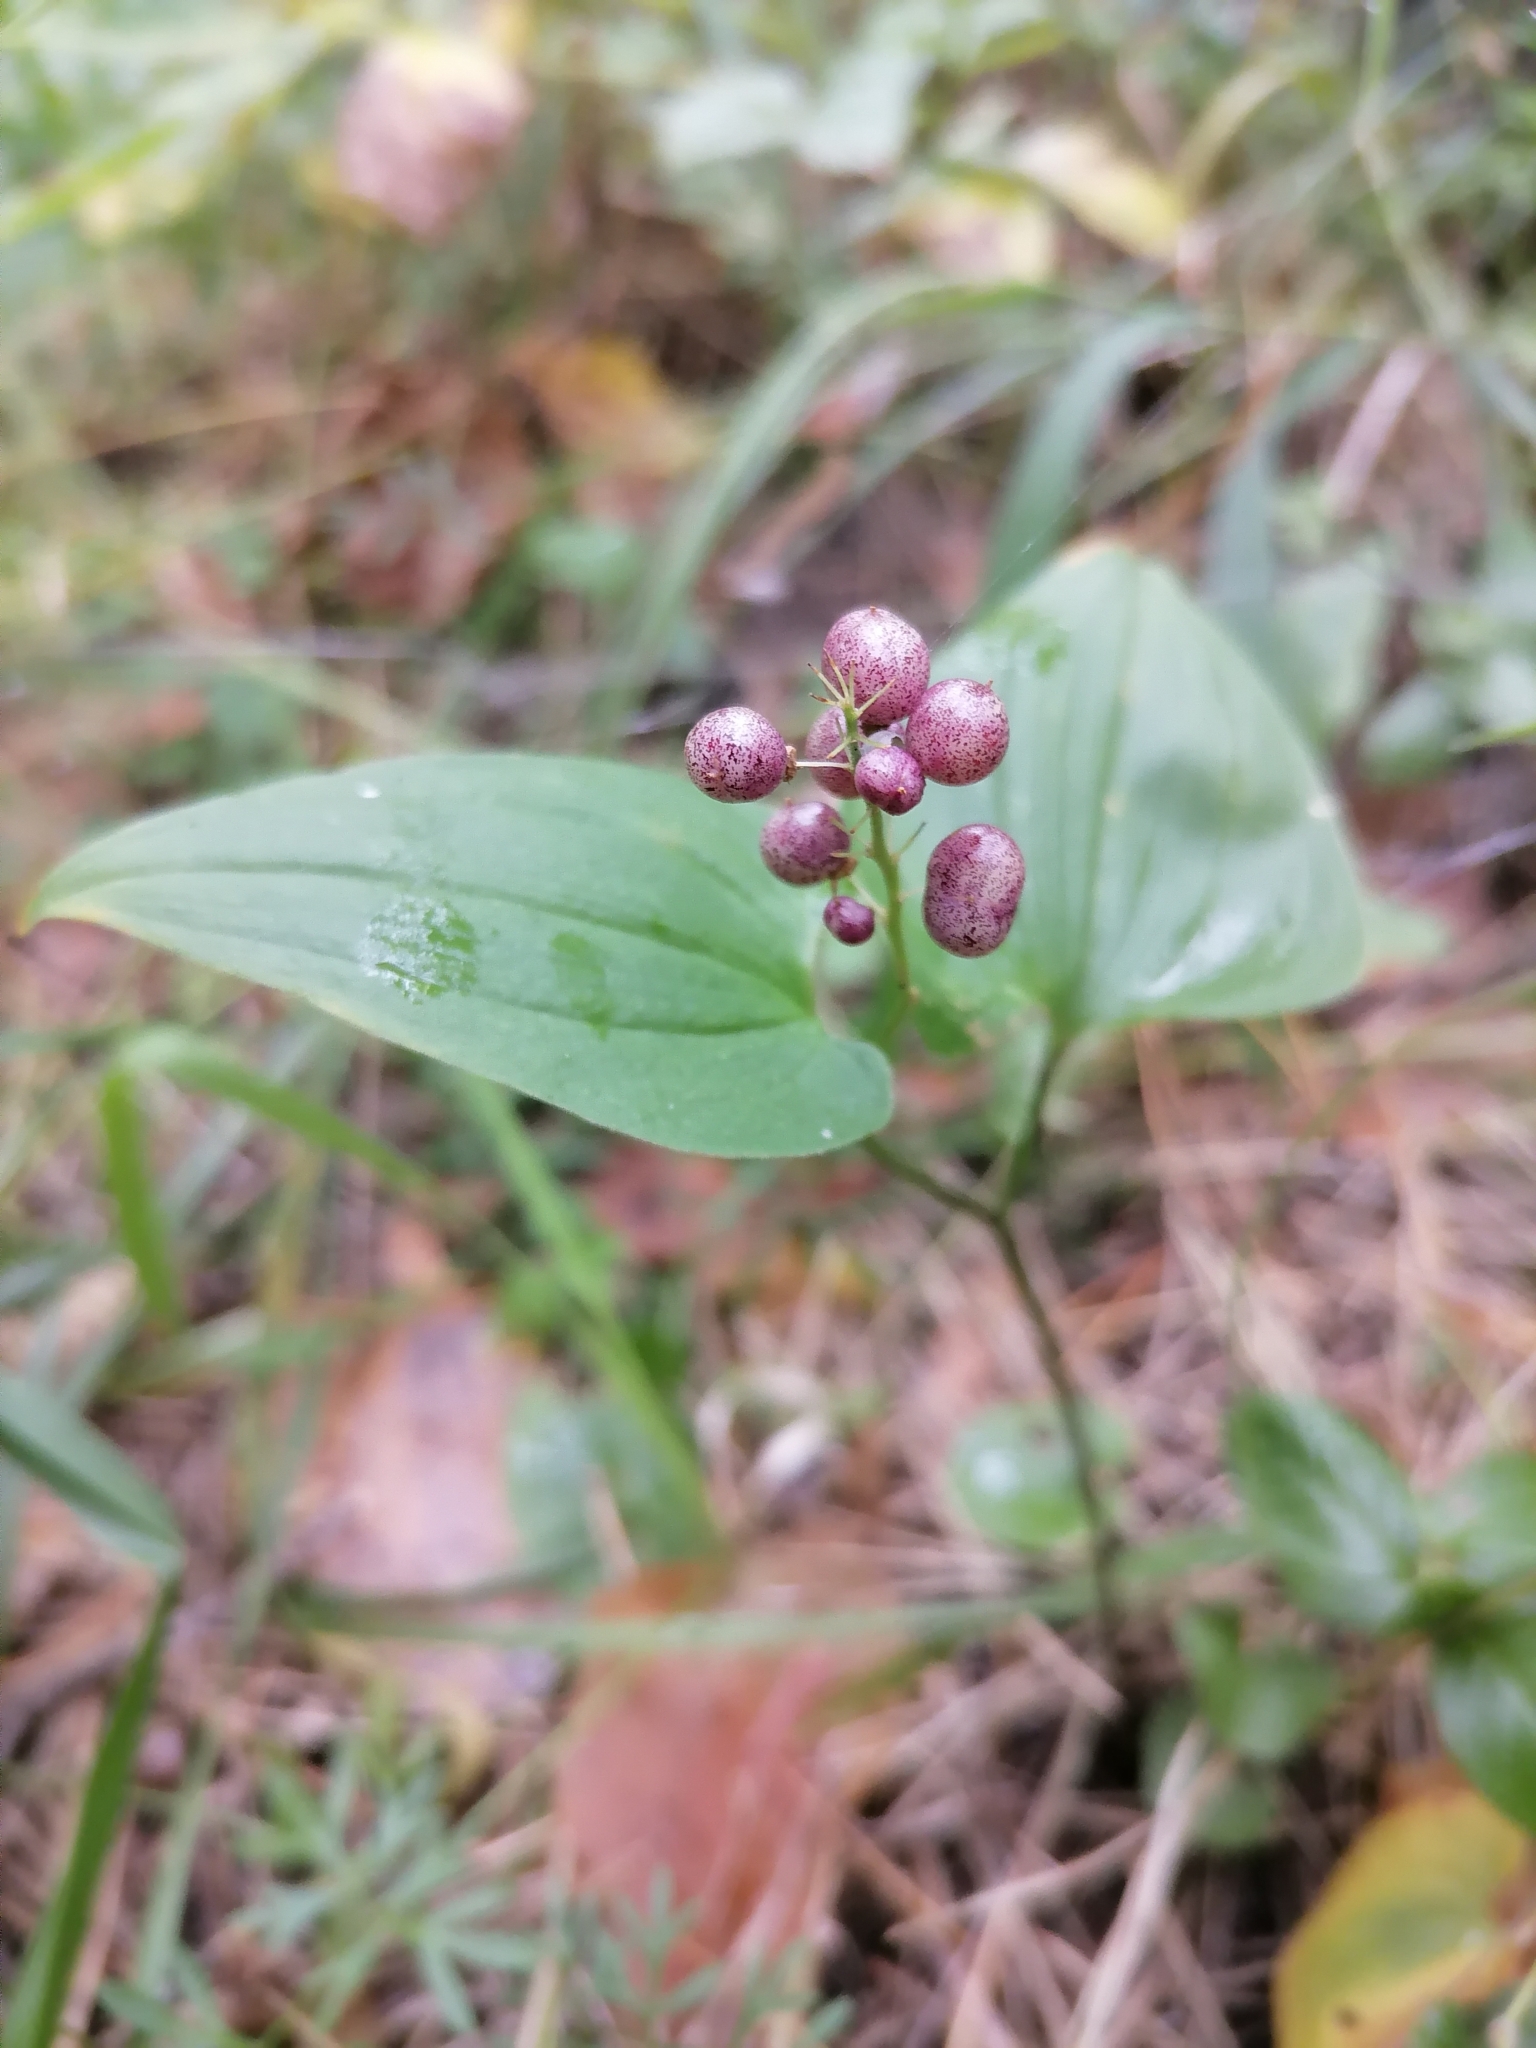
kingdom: Plantae
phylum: Tracheophyta
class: Liliopsida
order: Asparagales
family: Asparagaceae
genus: Maianthemum
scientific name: Maianthemum bifolium
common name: May lily
